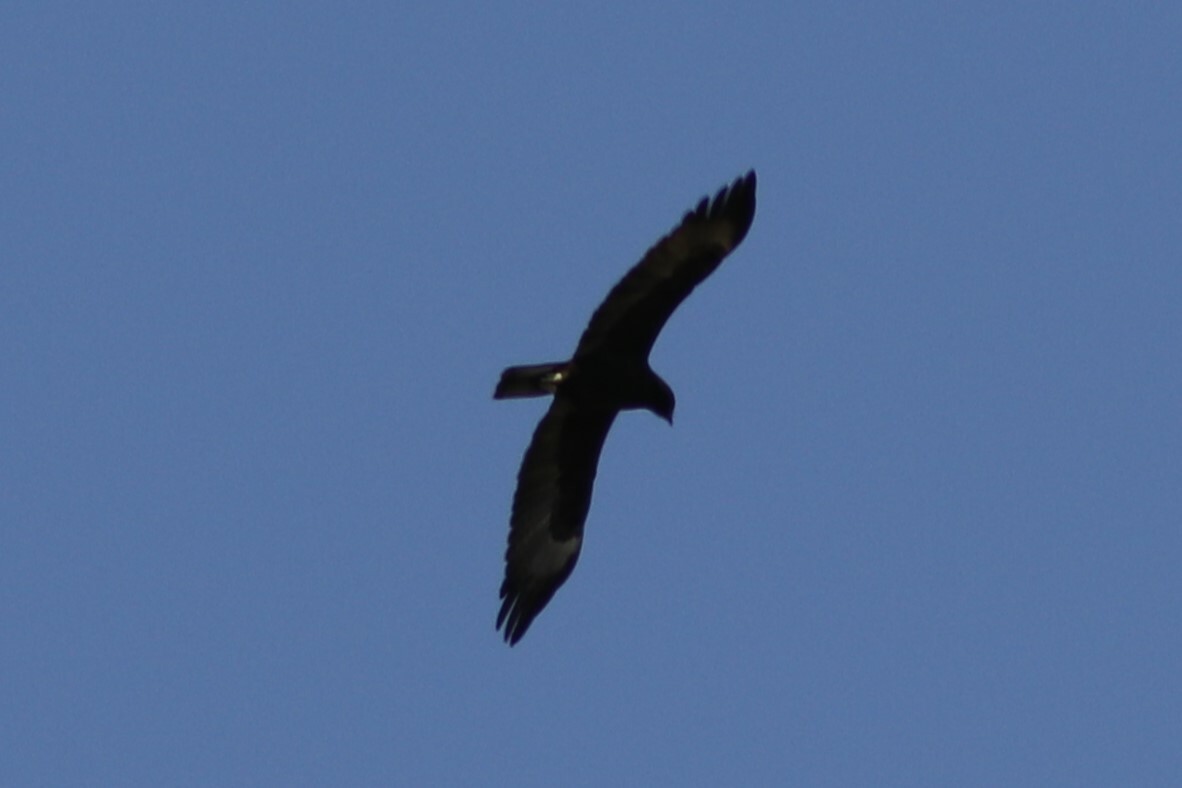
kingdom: Animalia
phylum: Chordata
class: Aves
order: Accipitriformes
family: Accipitridae
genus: Hieraaetus
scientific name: Hieraaetus wahlbergi
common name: Wahlberg's eagle
